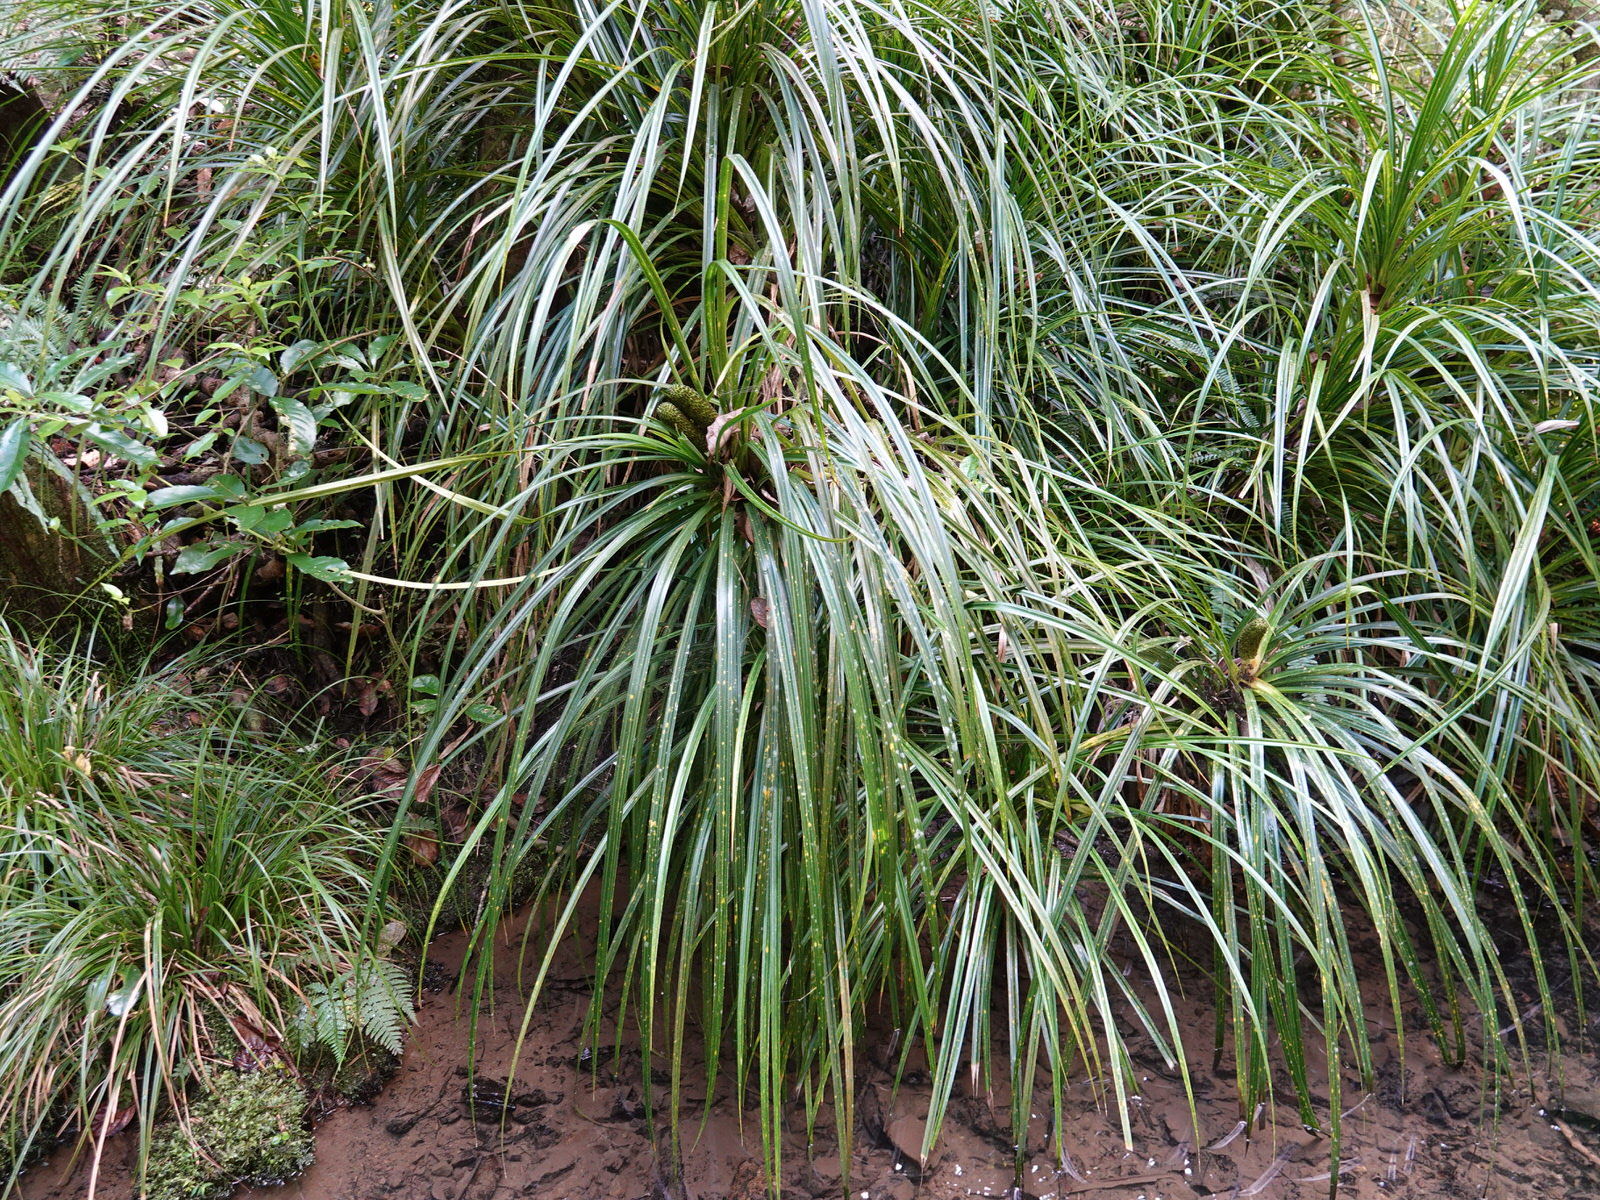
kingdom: Plantae
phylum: Tracheophyta
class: Liliopsida
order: Pandanales
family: Pandanaceae
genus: Freycinetia
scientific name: Freycinetia banksii
